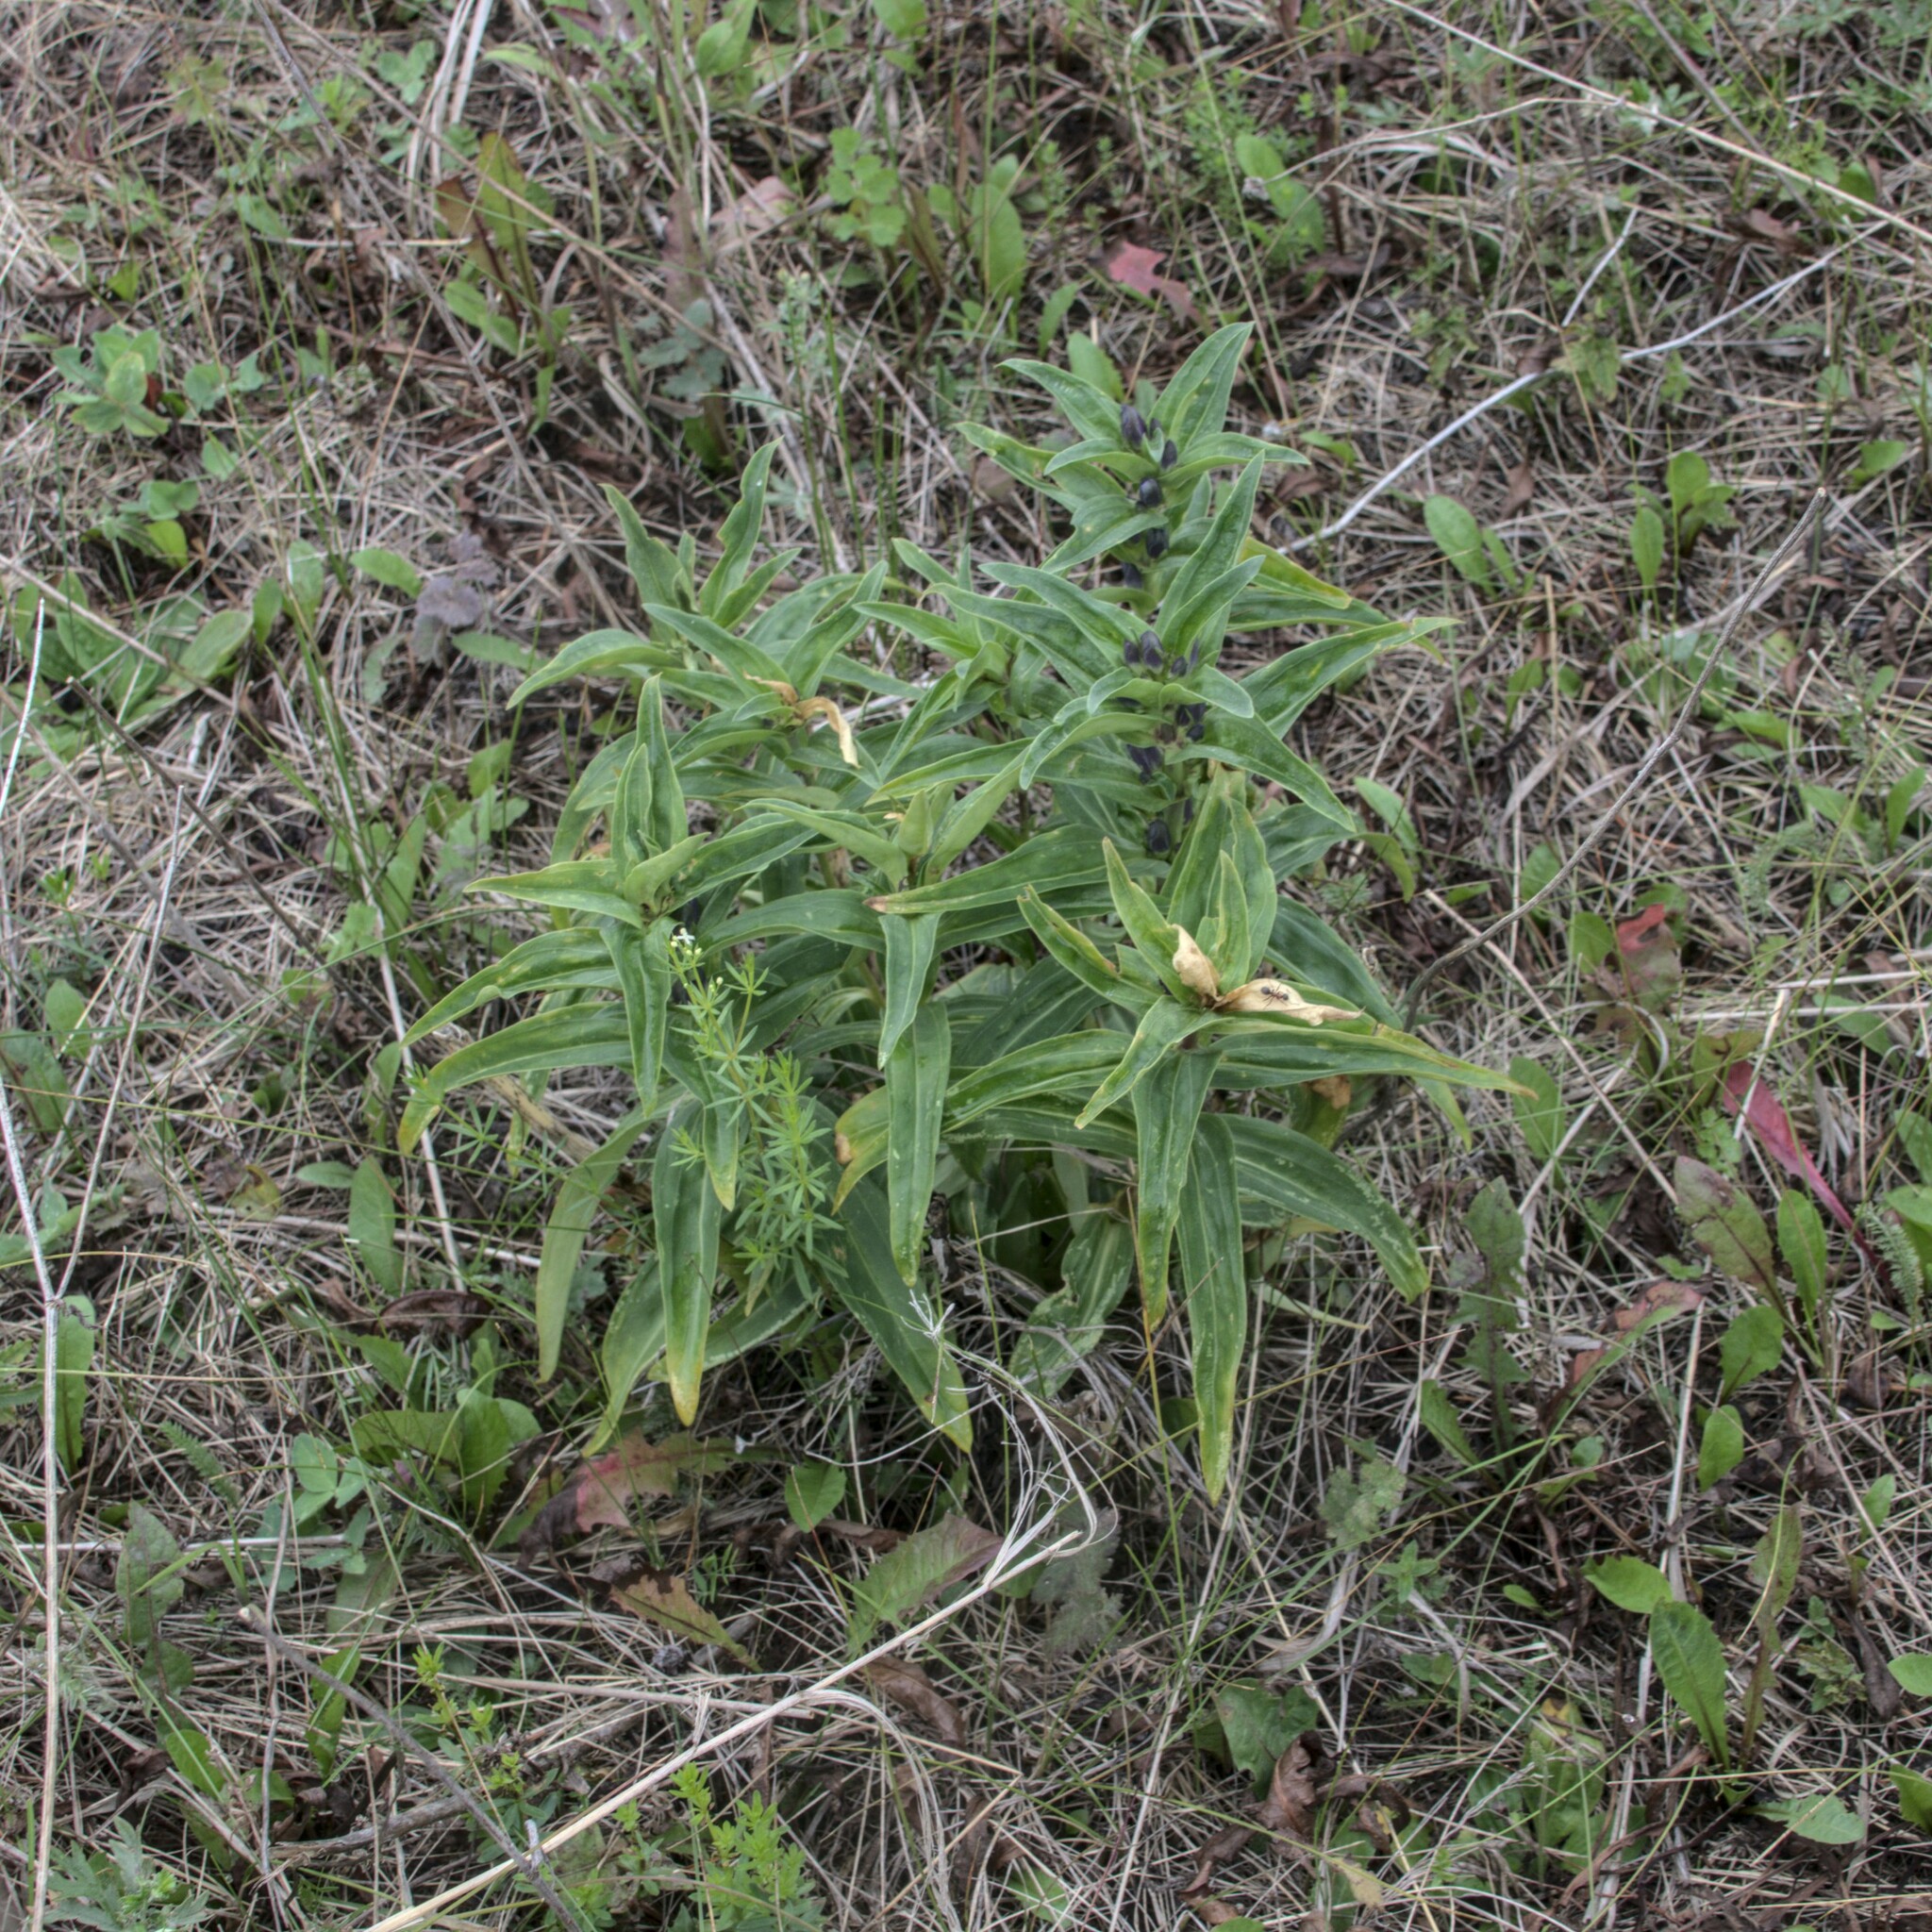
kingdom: Plantae
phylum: Tracheophyta
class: Magnoliopsida
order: Gentianales
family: Gentianaceae
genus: Gentiana
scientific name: Gentiana cruciata
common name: Cross gentian
